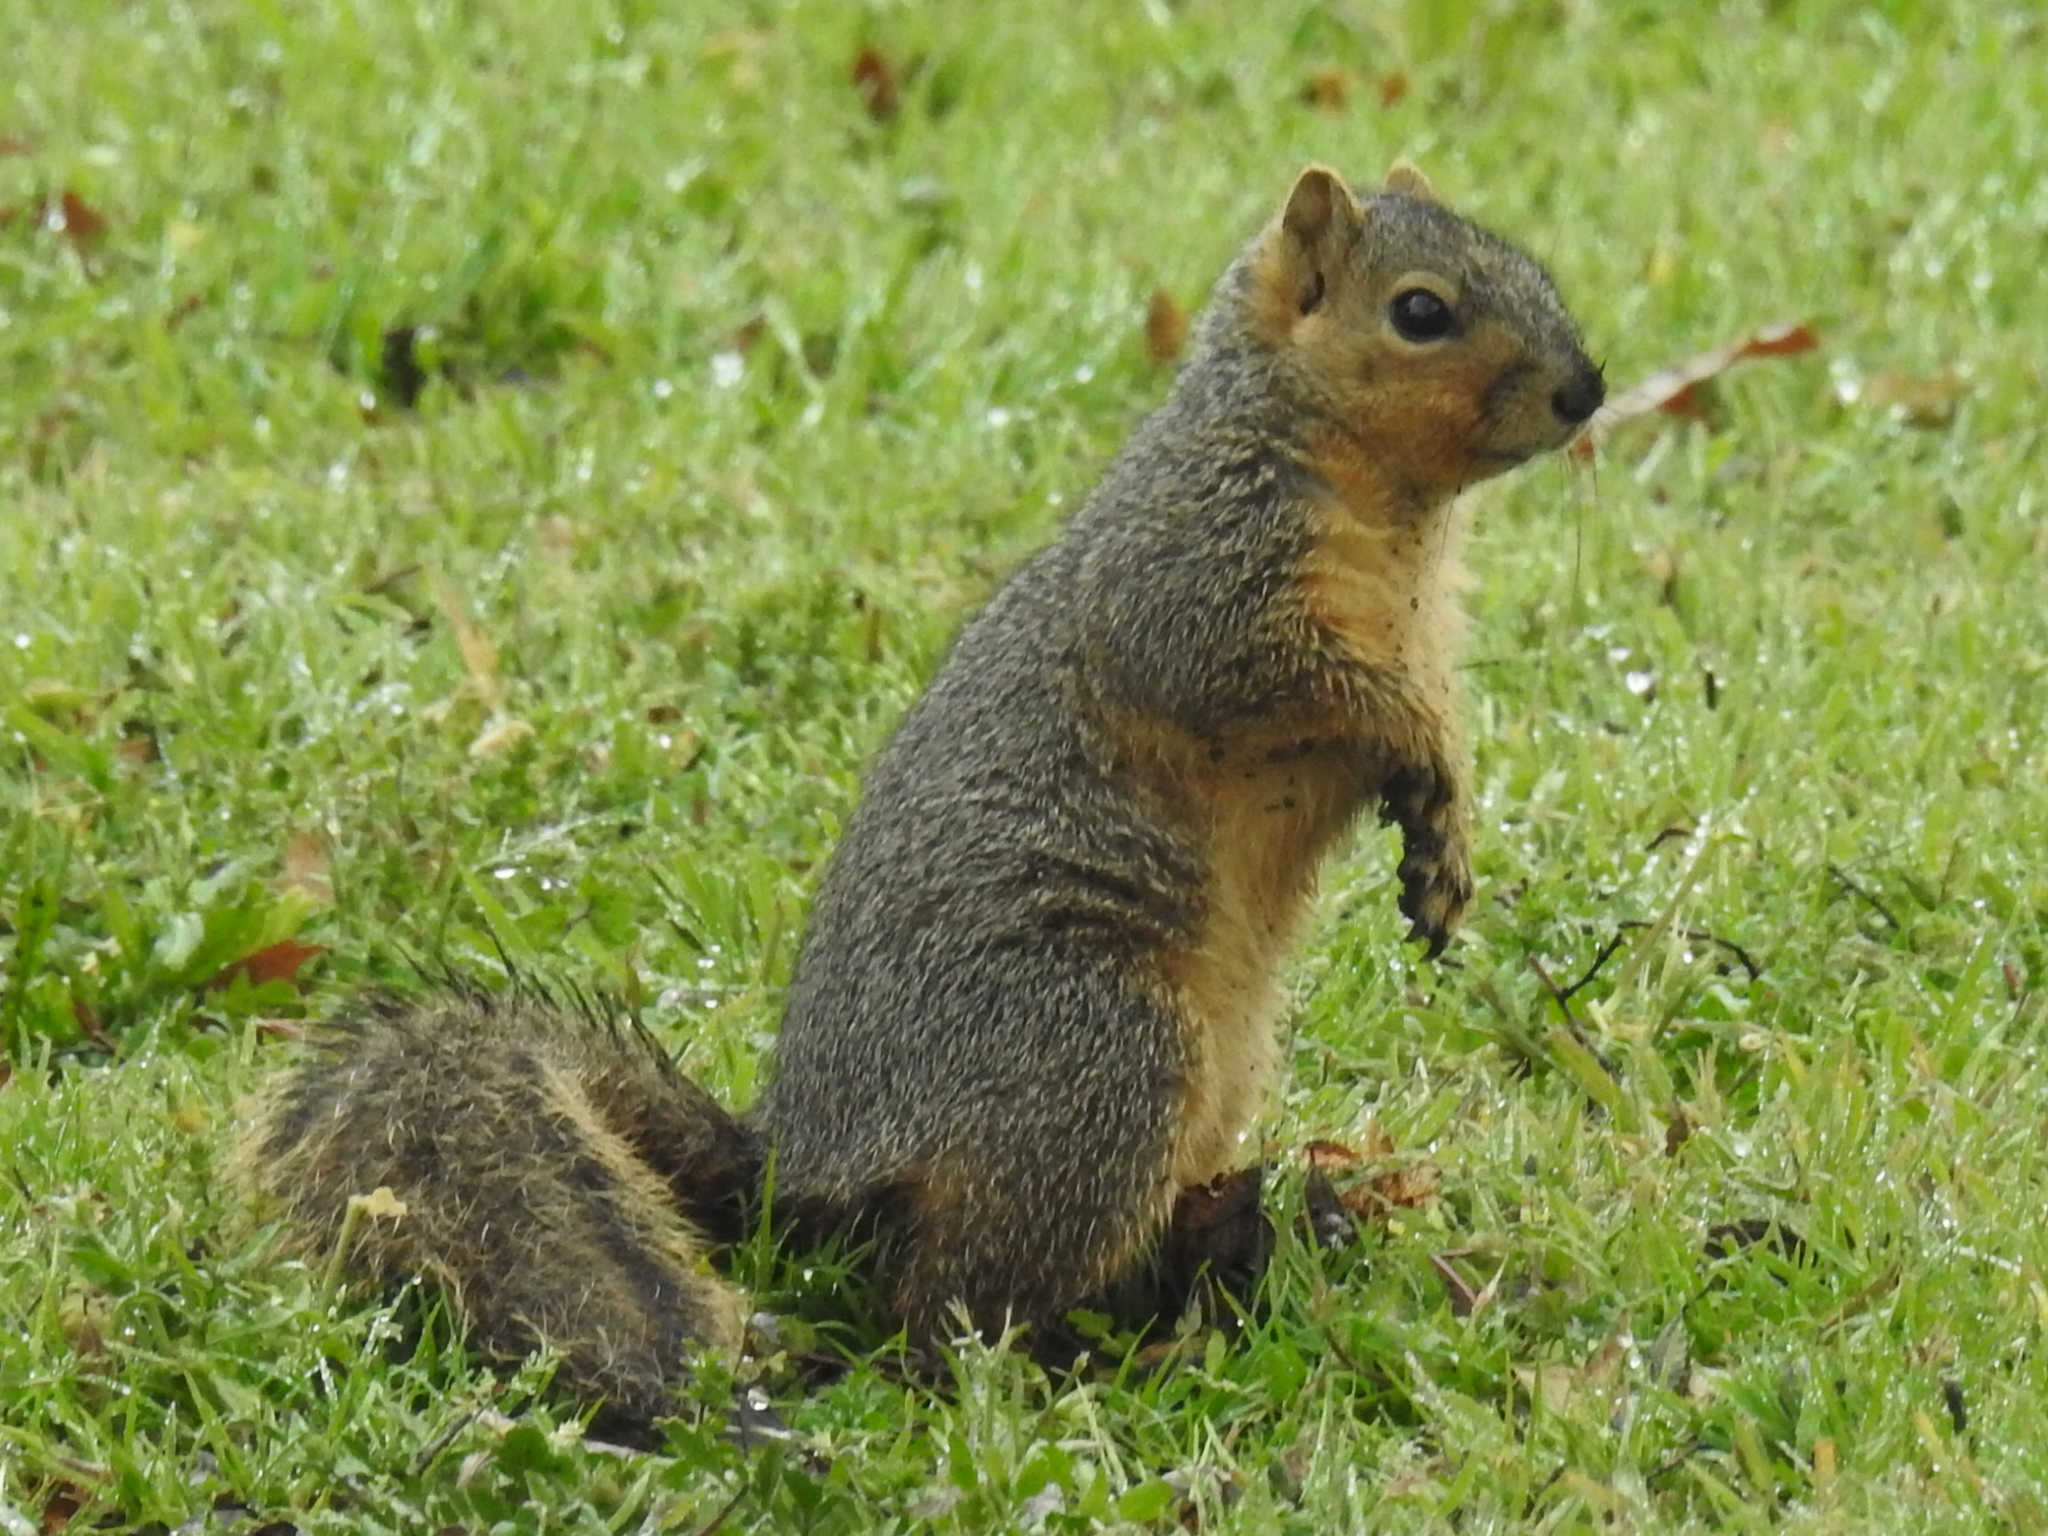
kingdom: Animalia
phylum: Chordata
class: Mammalia
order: Rodentia
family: Sciuridae
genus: Sciurus
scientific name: Sciurus niger
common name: Fox squirrel
